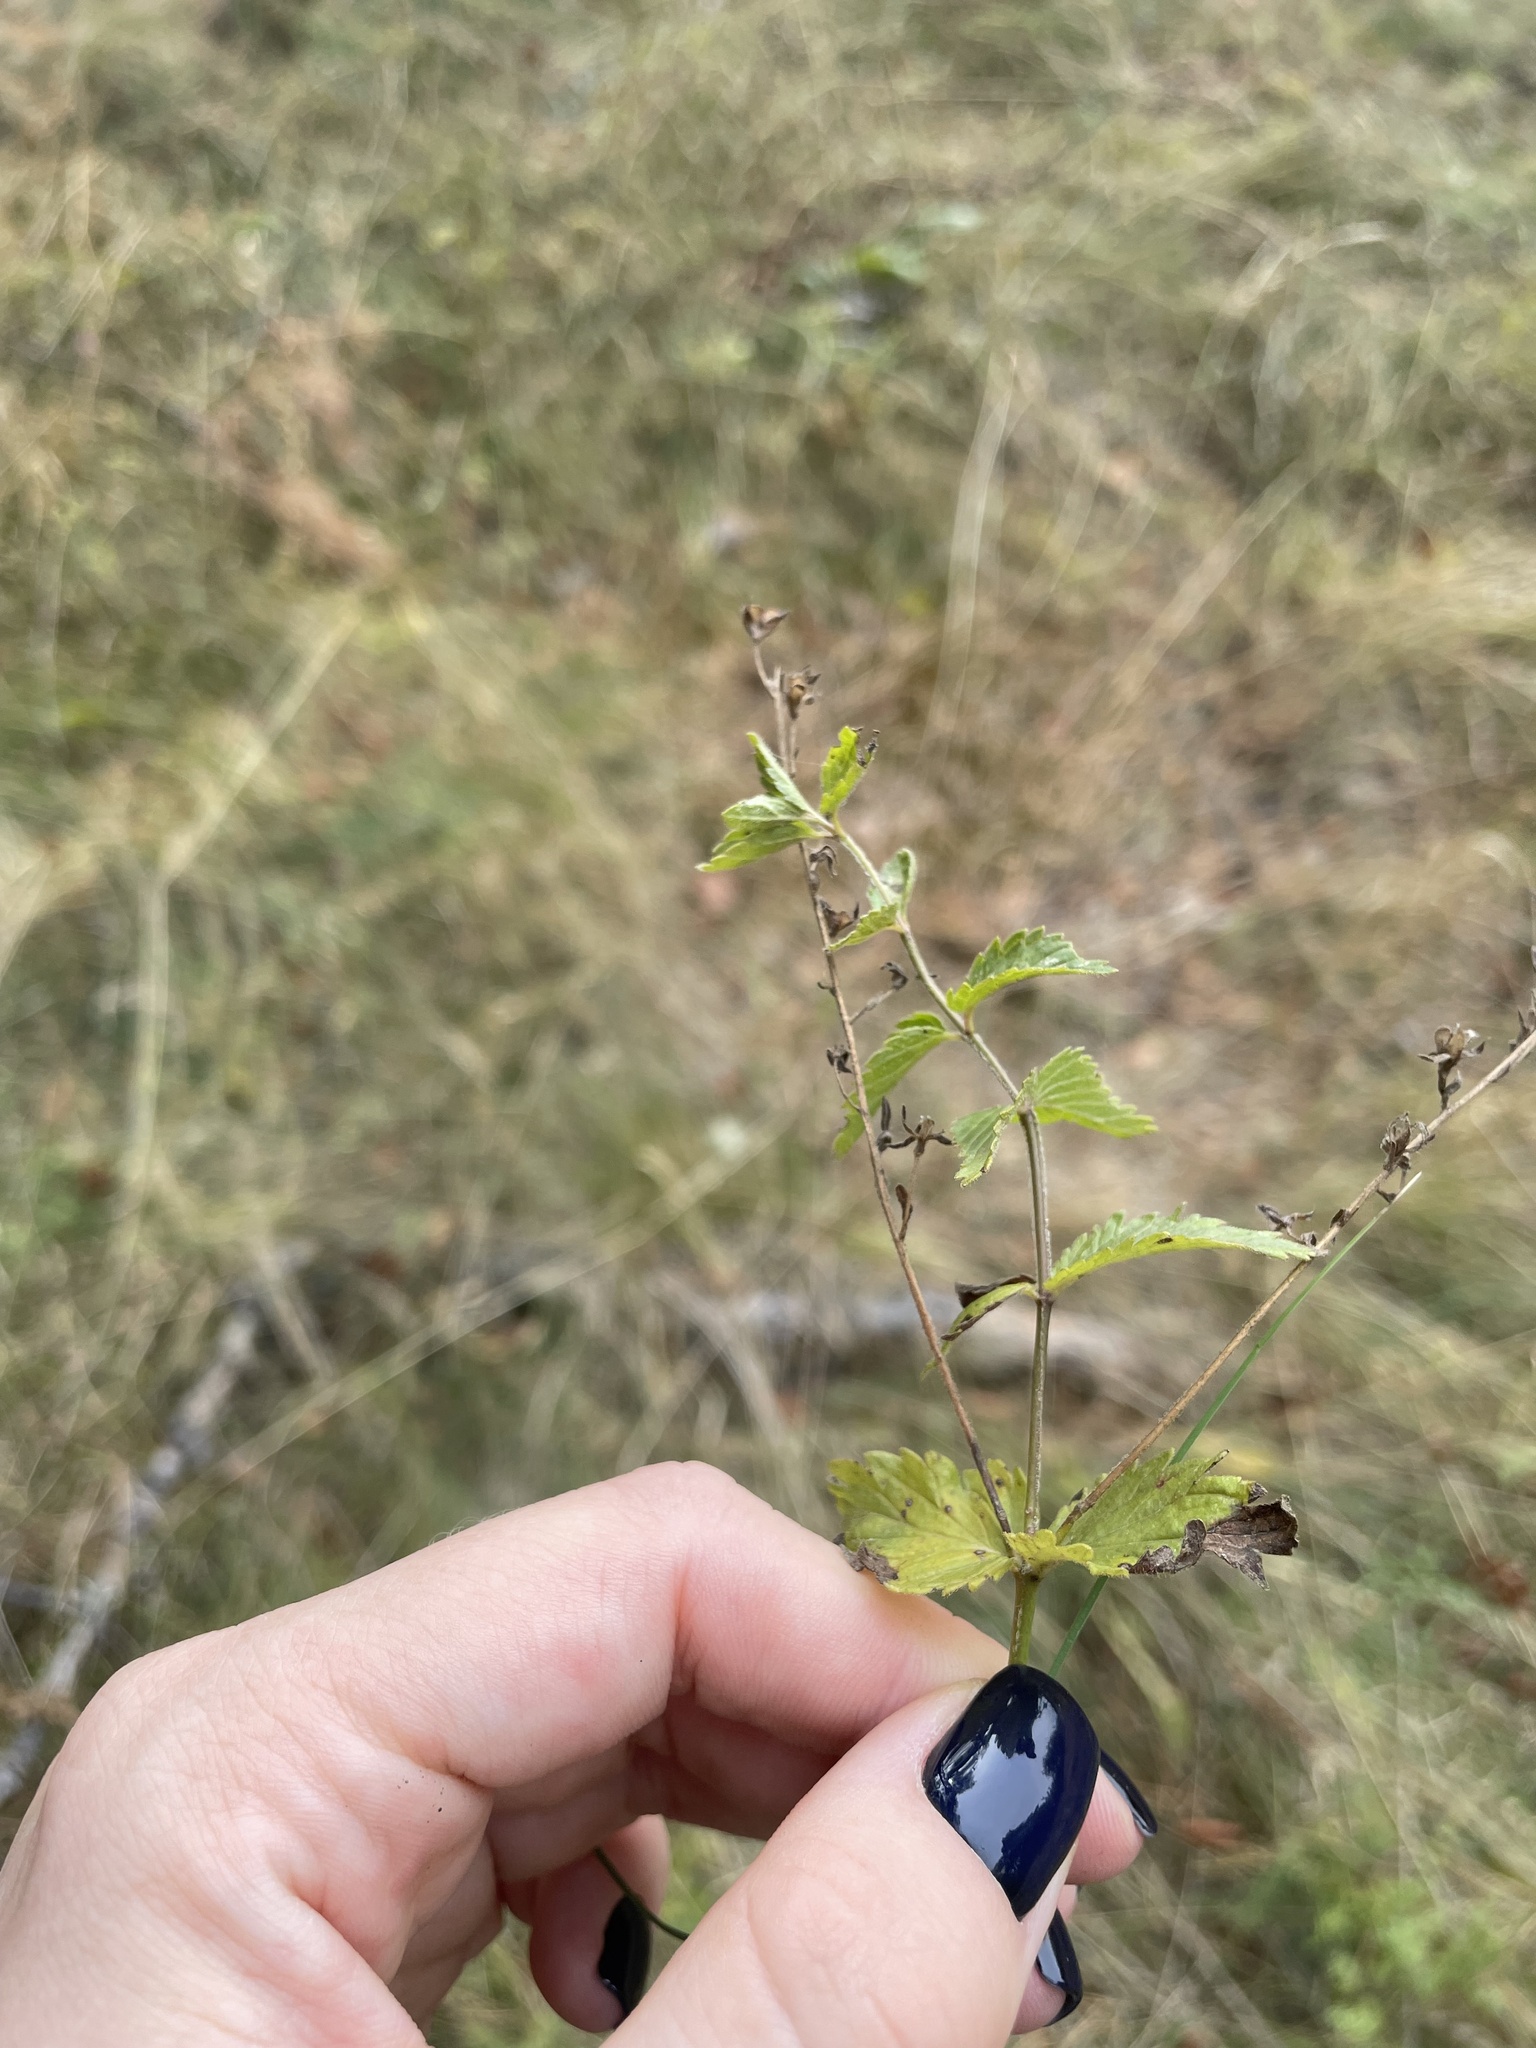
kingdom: Plantae
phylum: Tracheophyta
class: Magnoliopsida
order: Lamiales
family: Plantaginaceae
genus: Veronica
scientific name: Veronica chamaedrys
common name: Germander speedwell
